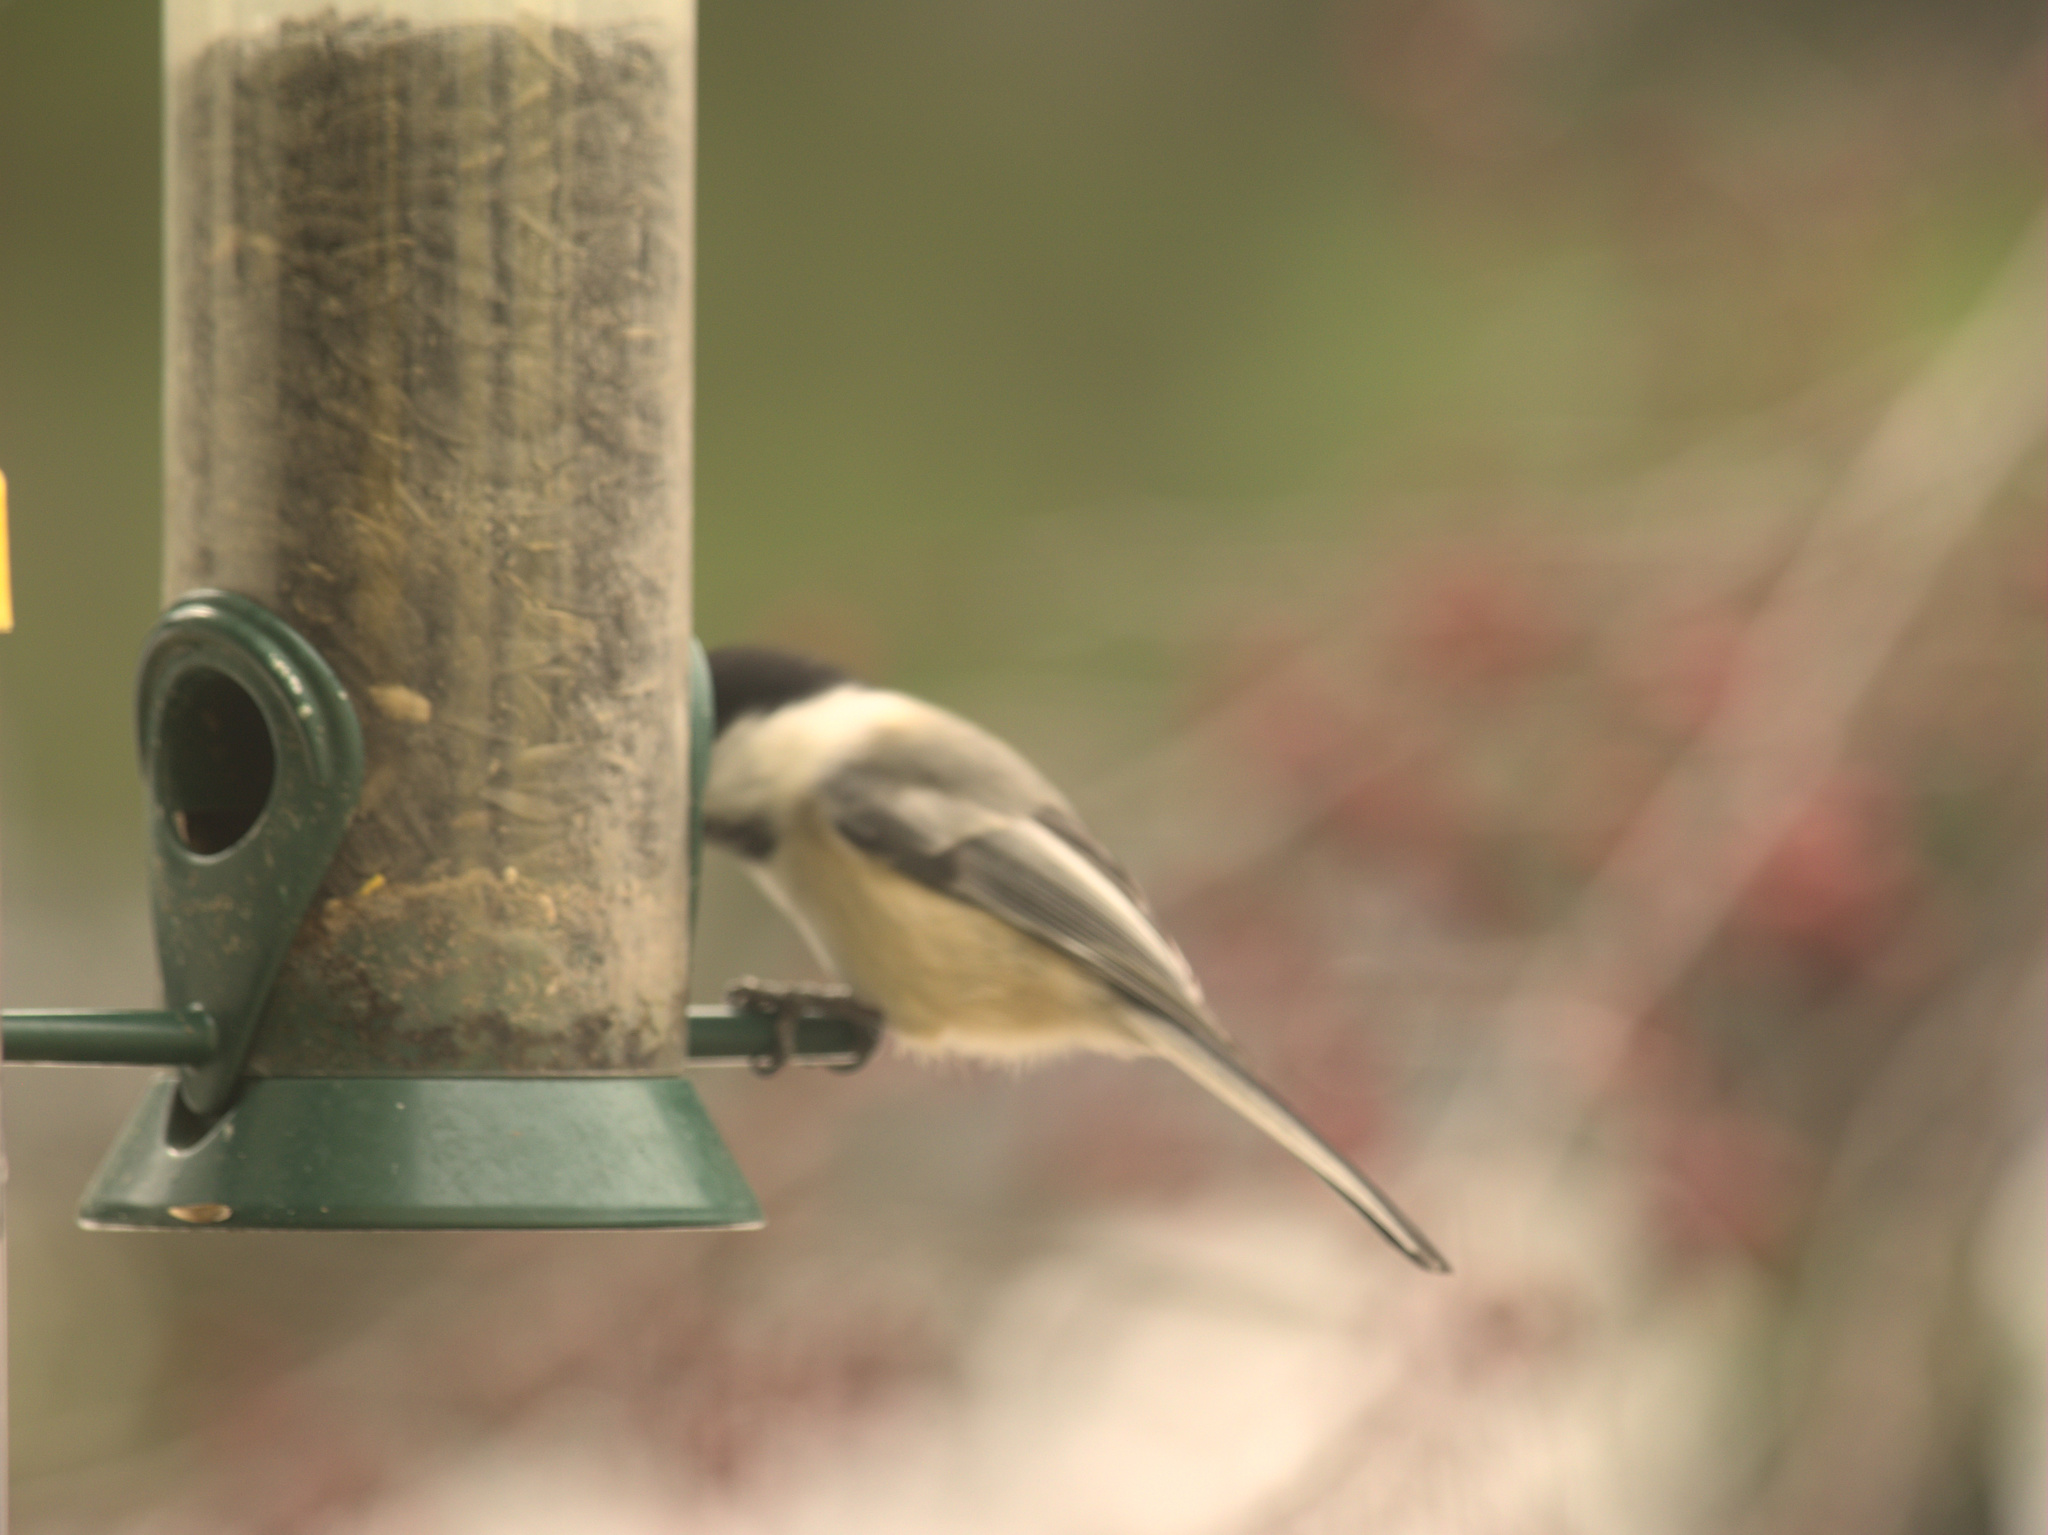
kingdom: Animalia
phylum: Chordata
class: Aves
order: Passeriformes
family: Paridae
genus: Poecile
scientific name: Poecile atricapillus
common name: Black-capped chickadee
